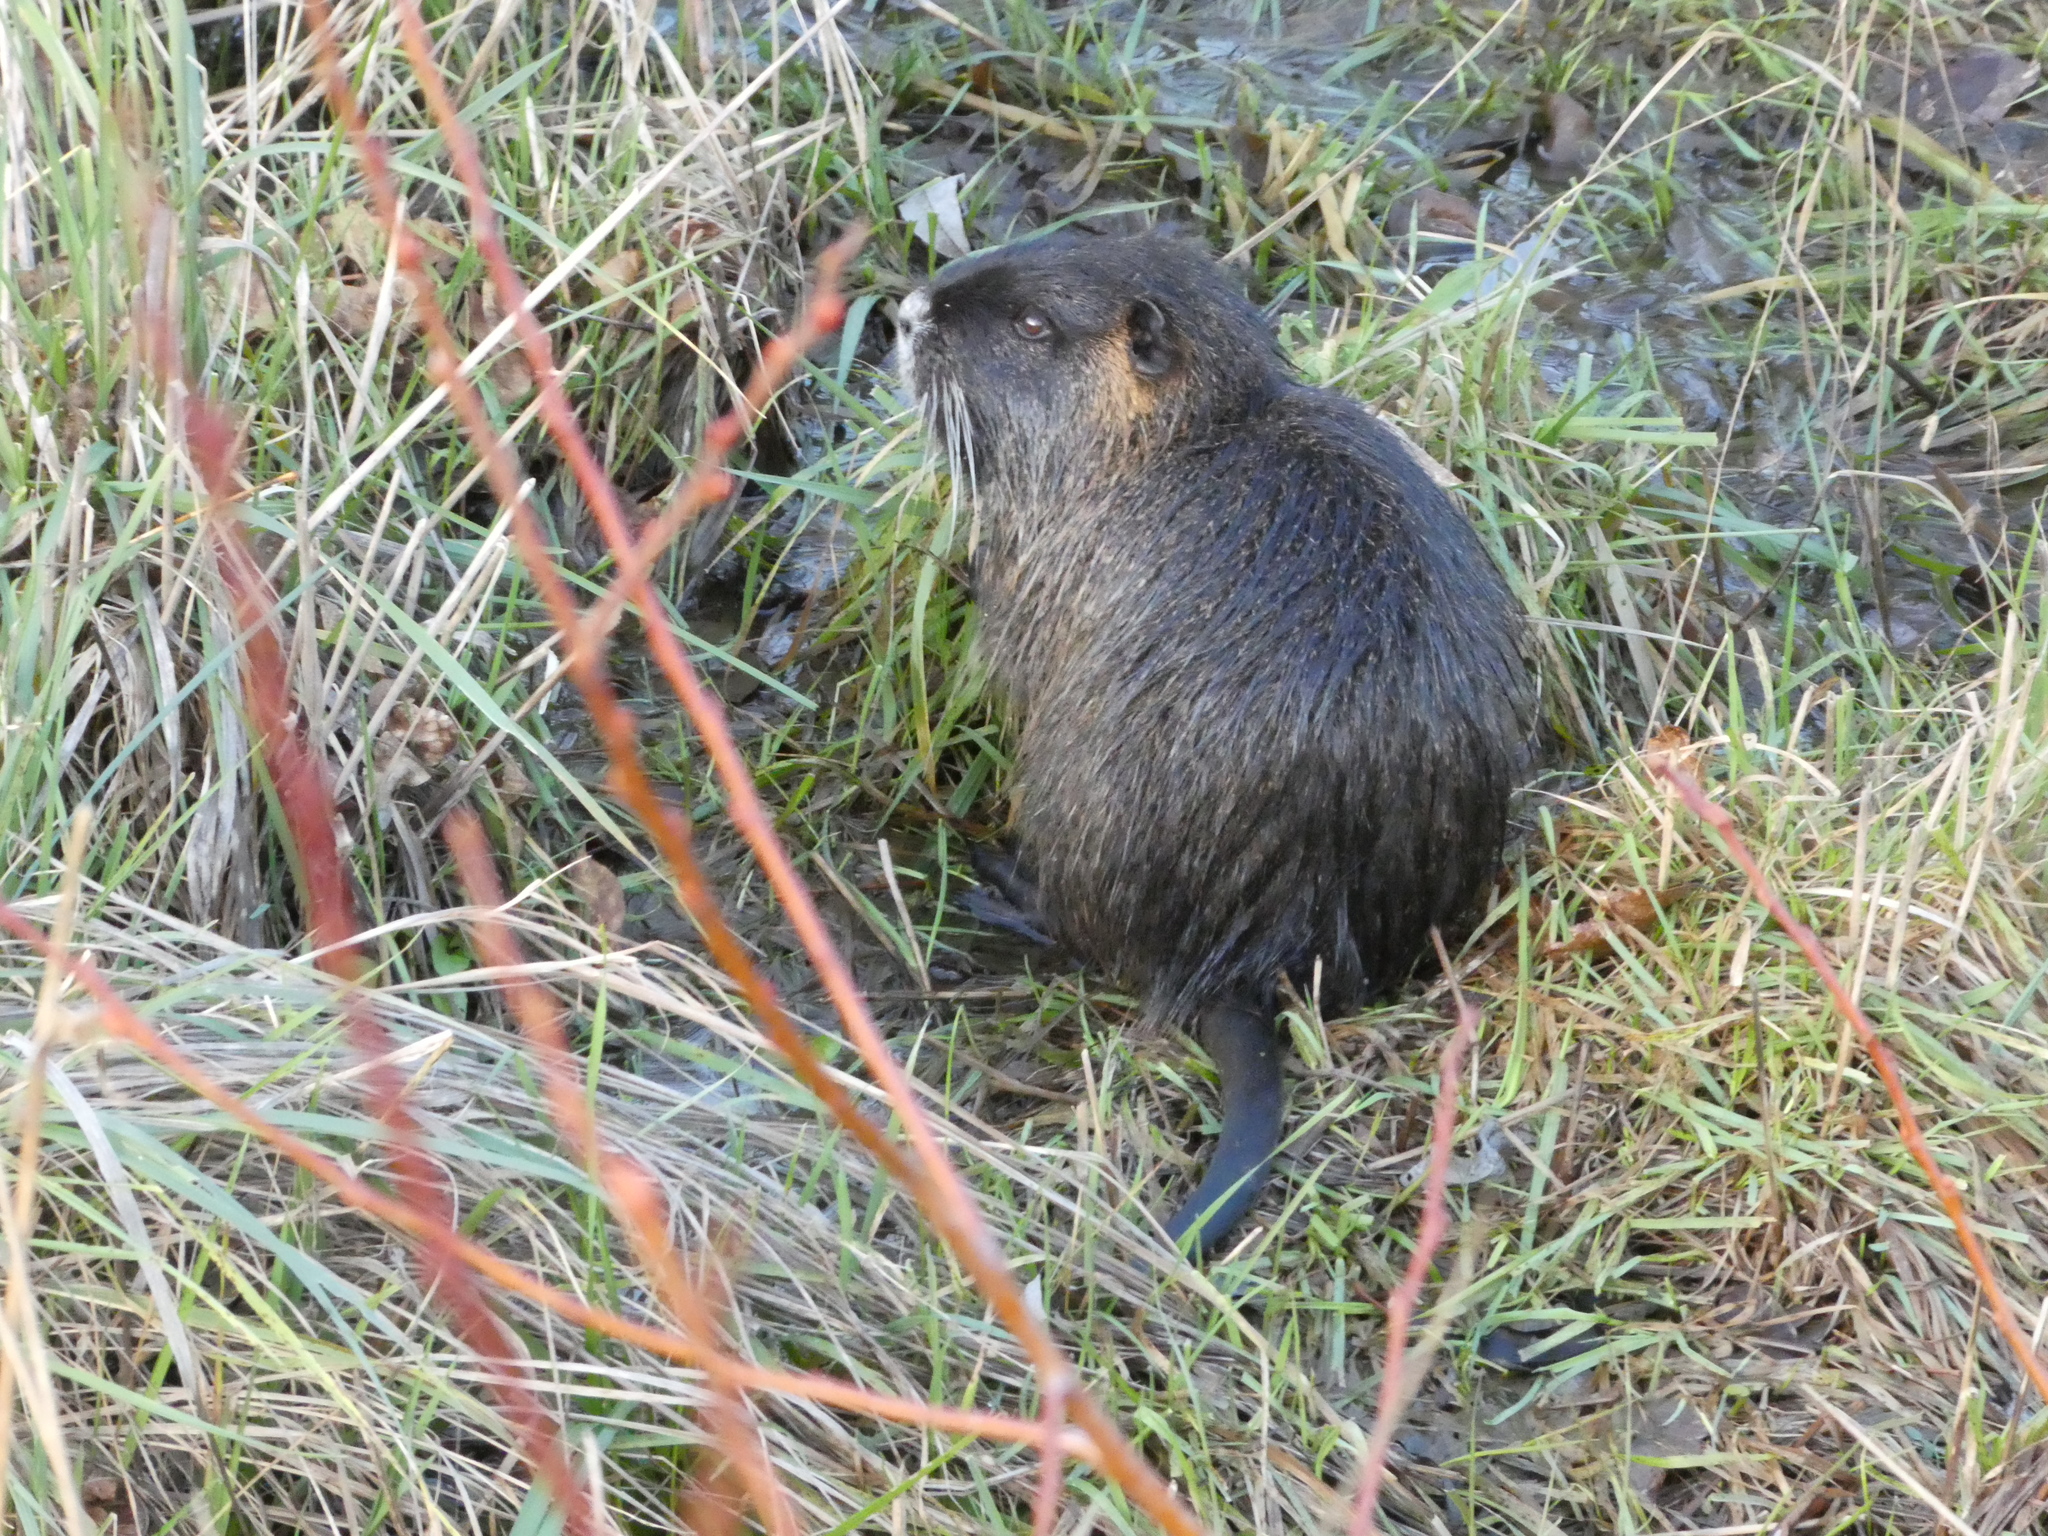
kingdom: Animalia
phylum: Chordata
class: Mammalia
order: Rodentia
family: Myocastoridae
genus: Myocastor
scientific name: Myocastor coypus
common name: Coypu
